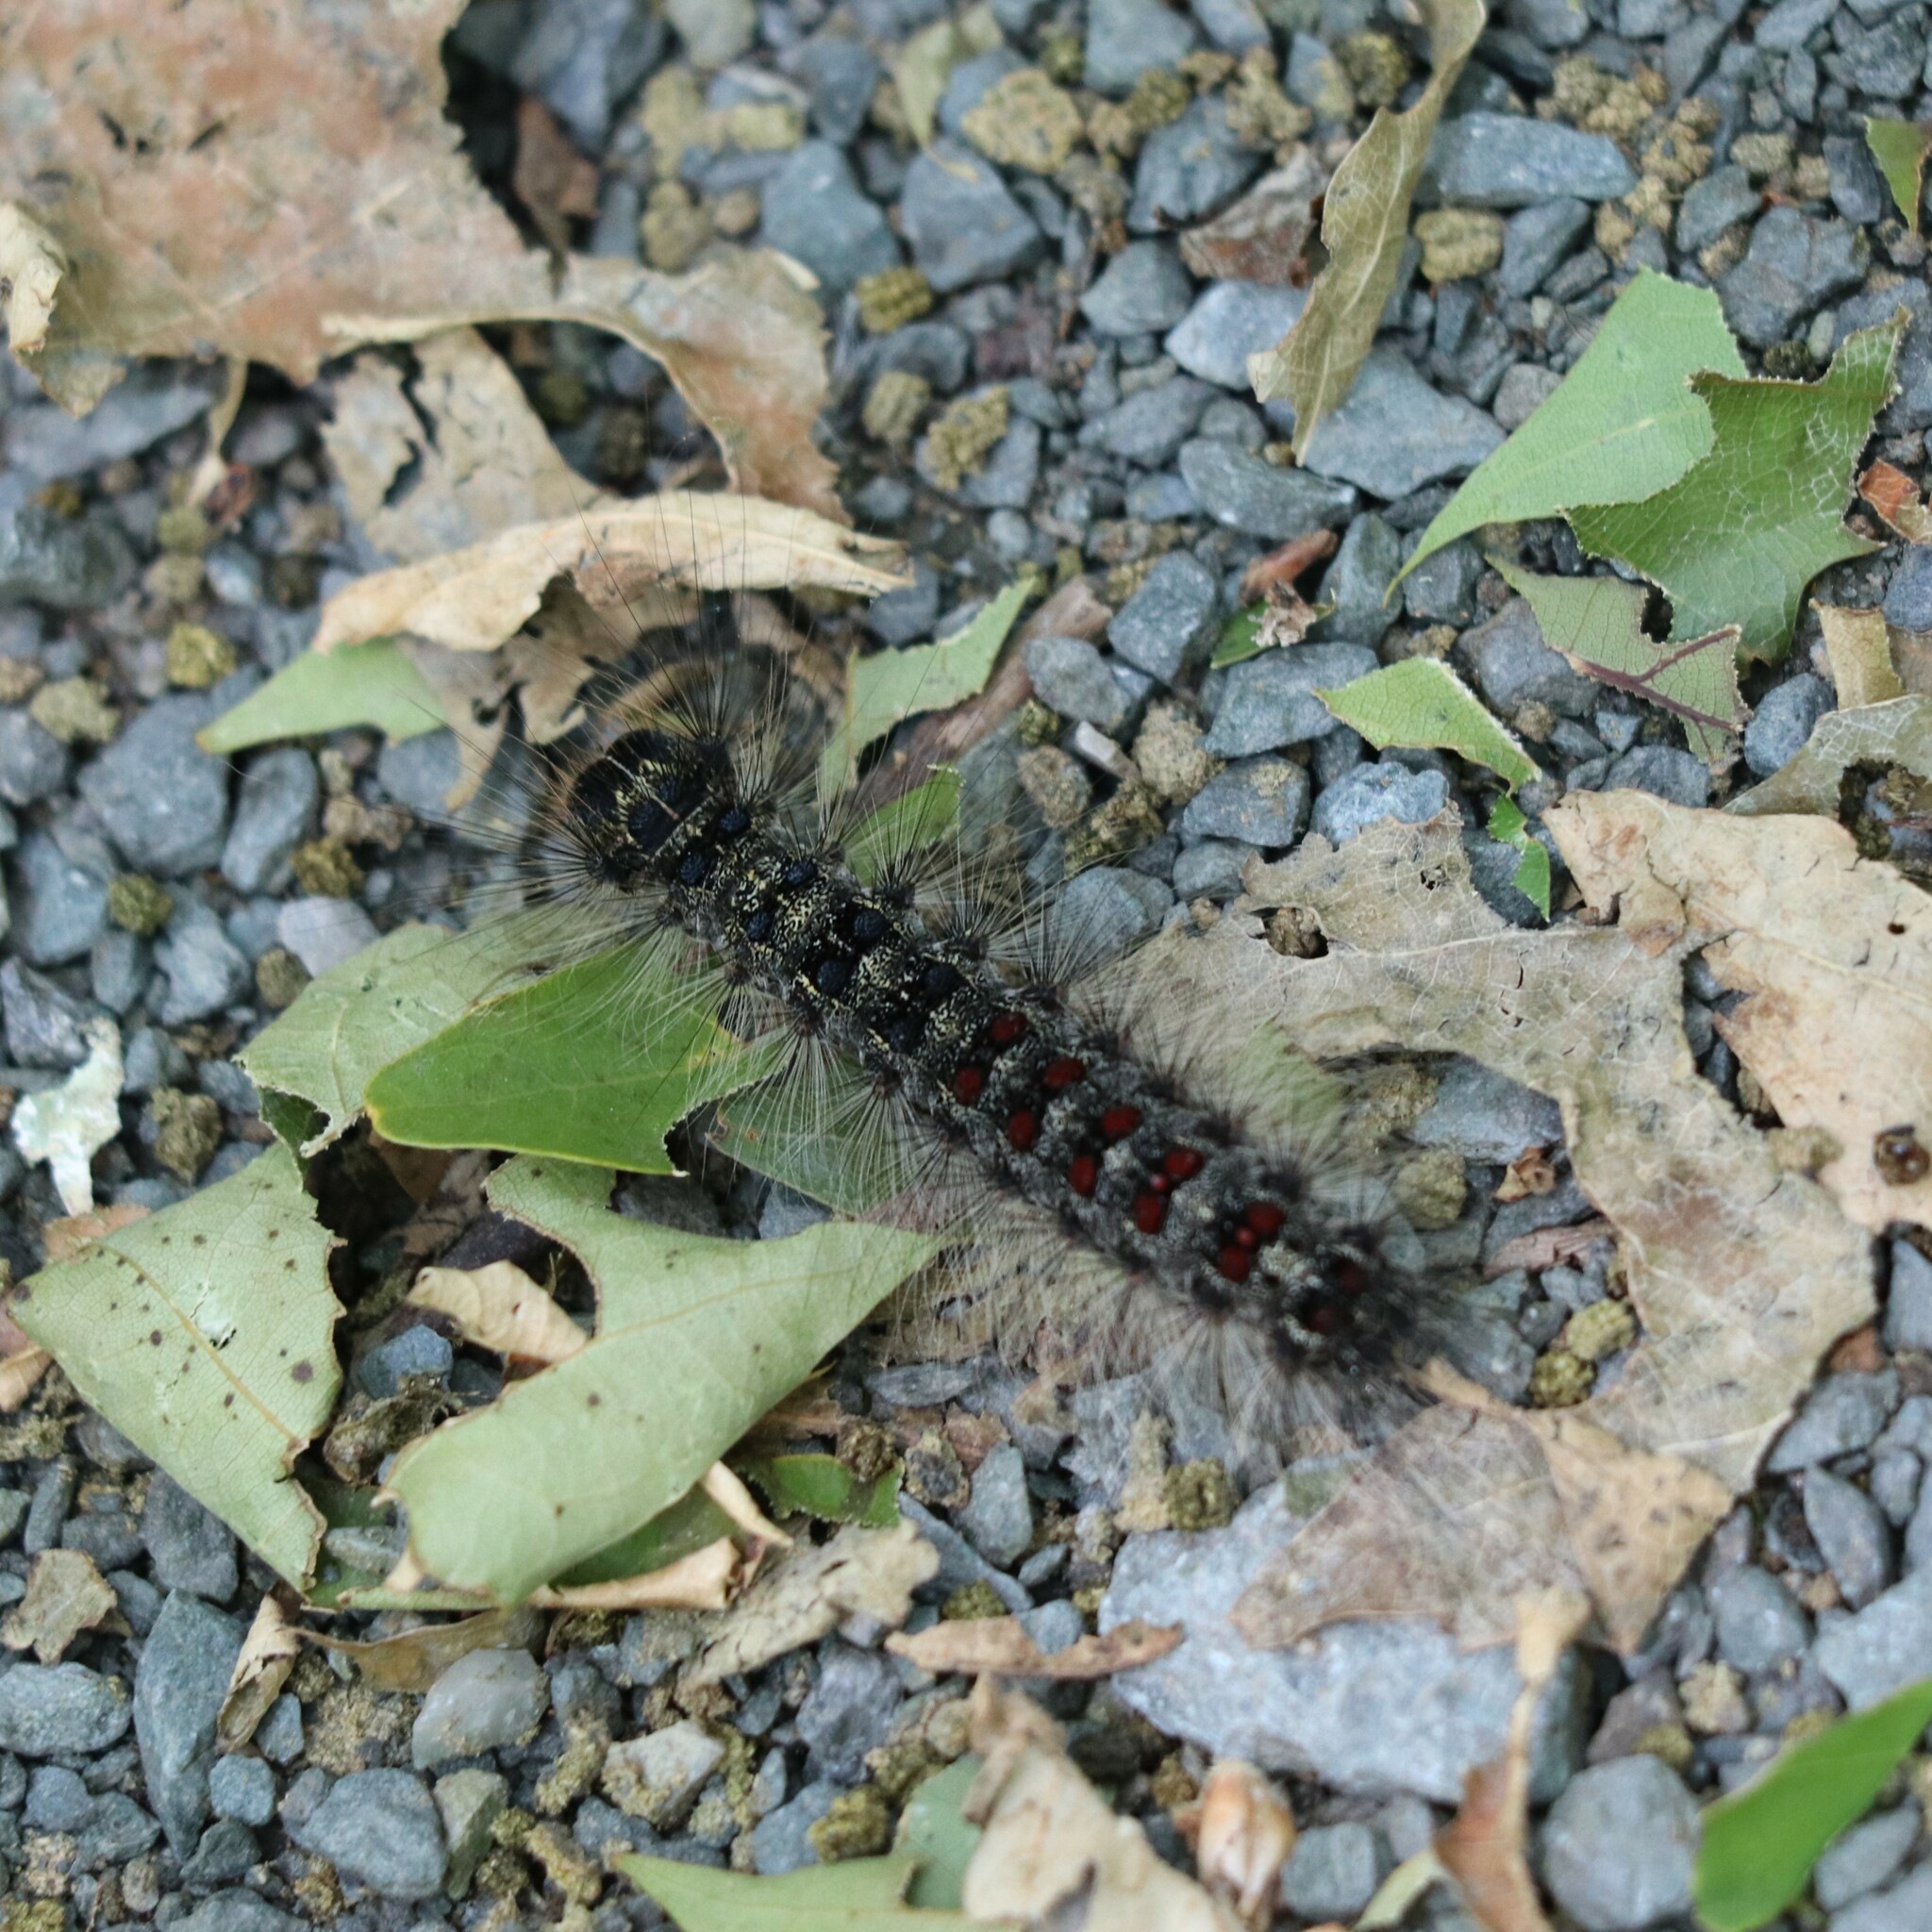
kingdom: Animalia
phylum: Arthropoda
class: Insecta
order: Lepidoptera
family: Erebidae
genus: Lymantria
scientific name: Lymantria dispar
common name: Gypsy moth
